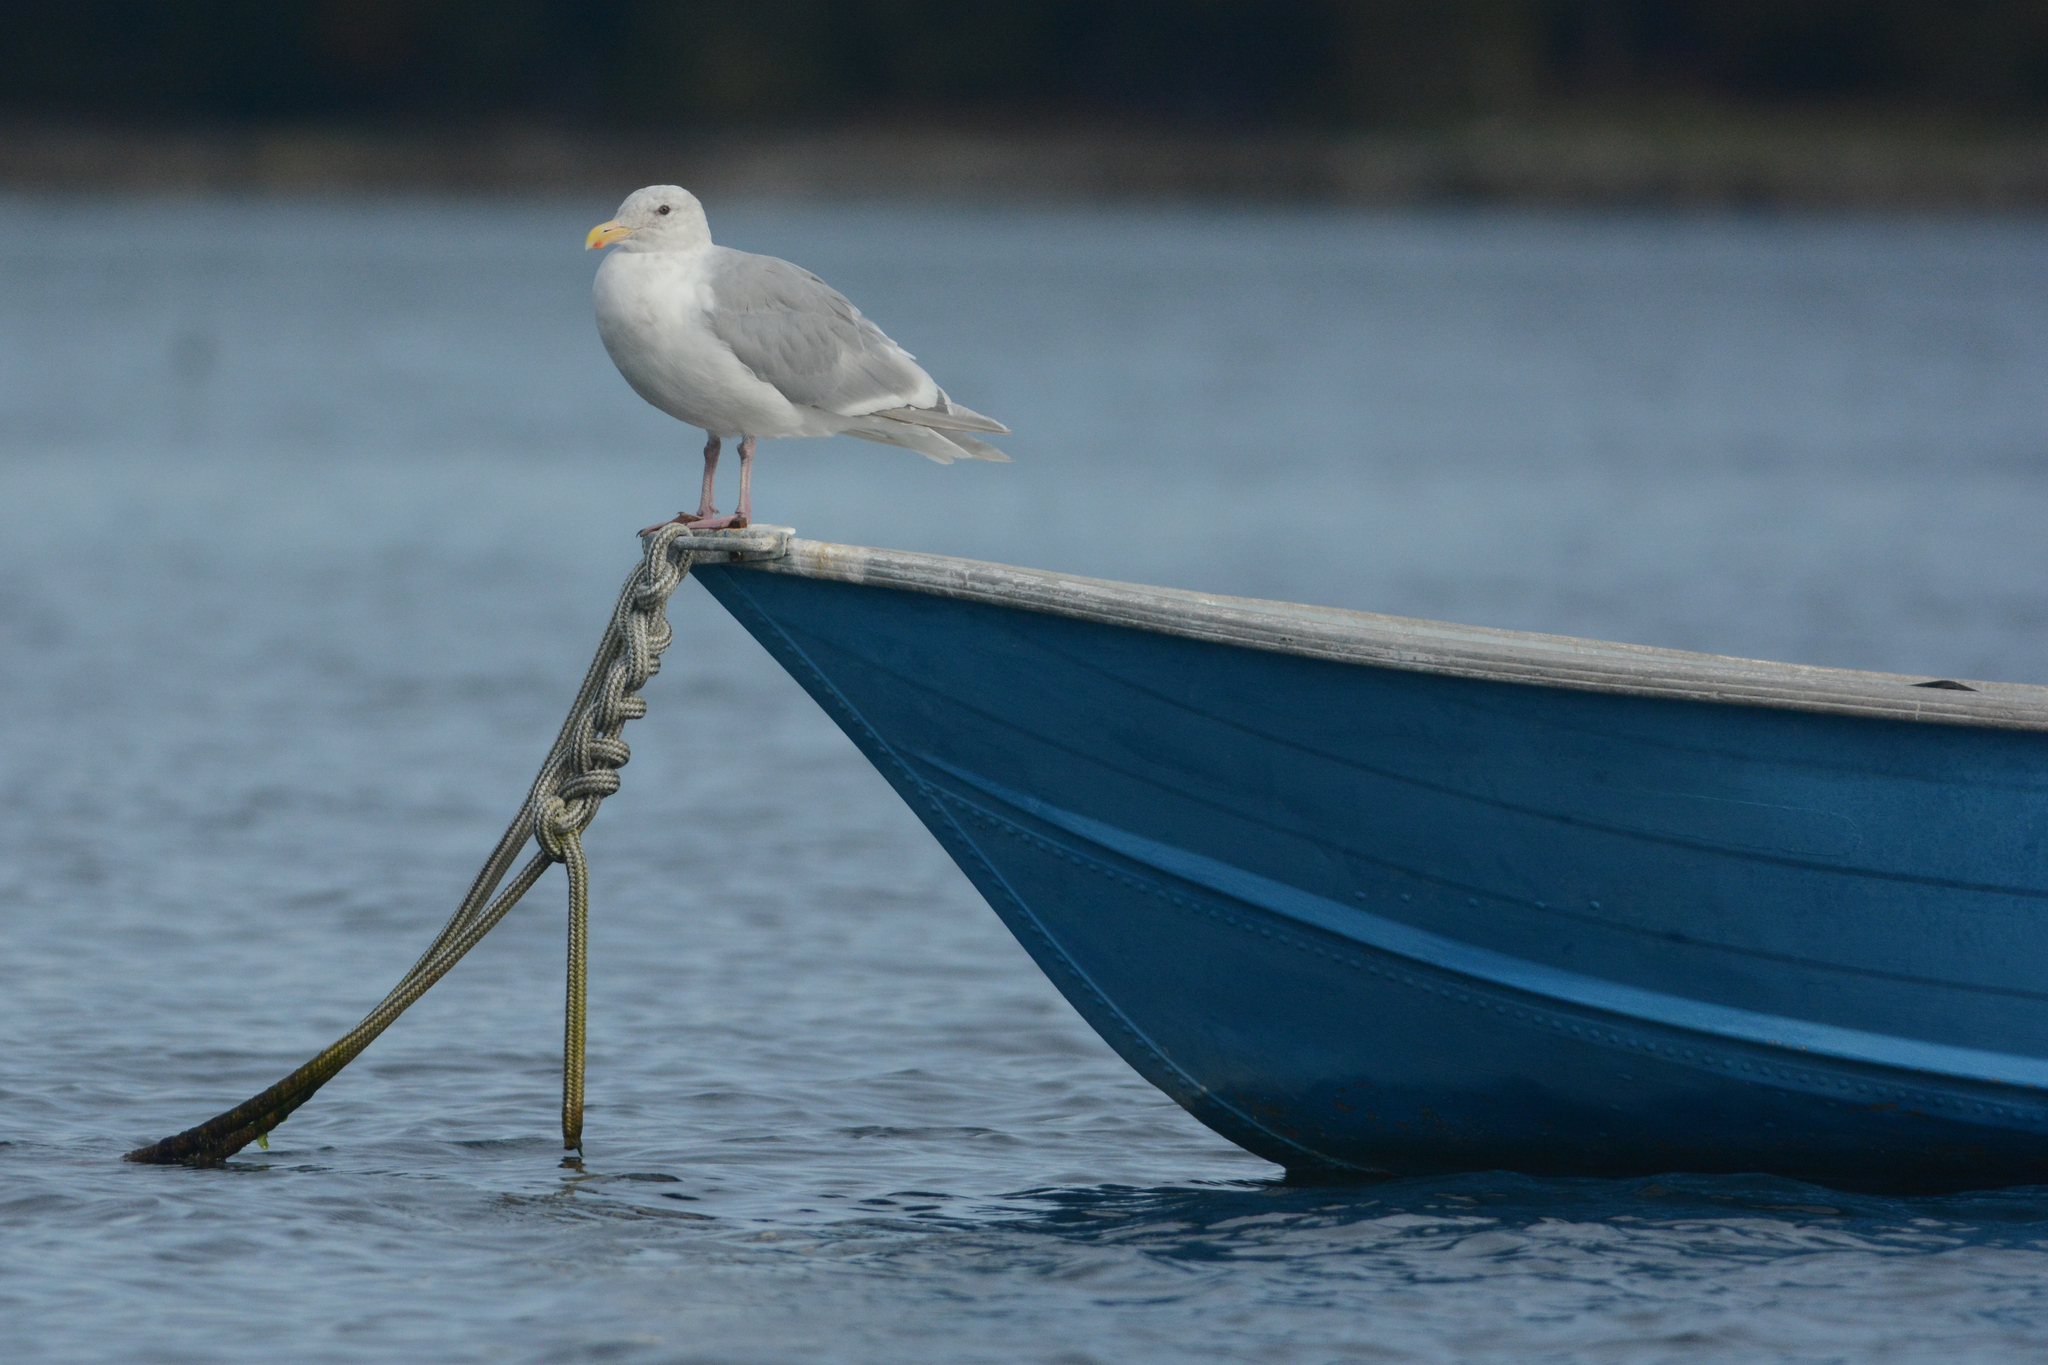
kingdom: Animalia
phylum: Chordata
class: Aves
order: Charadriiformes
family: Laridae
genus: Larus
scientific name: Larus glaucescens
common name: Glaucous-winged gull
